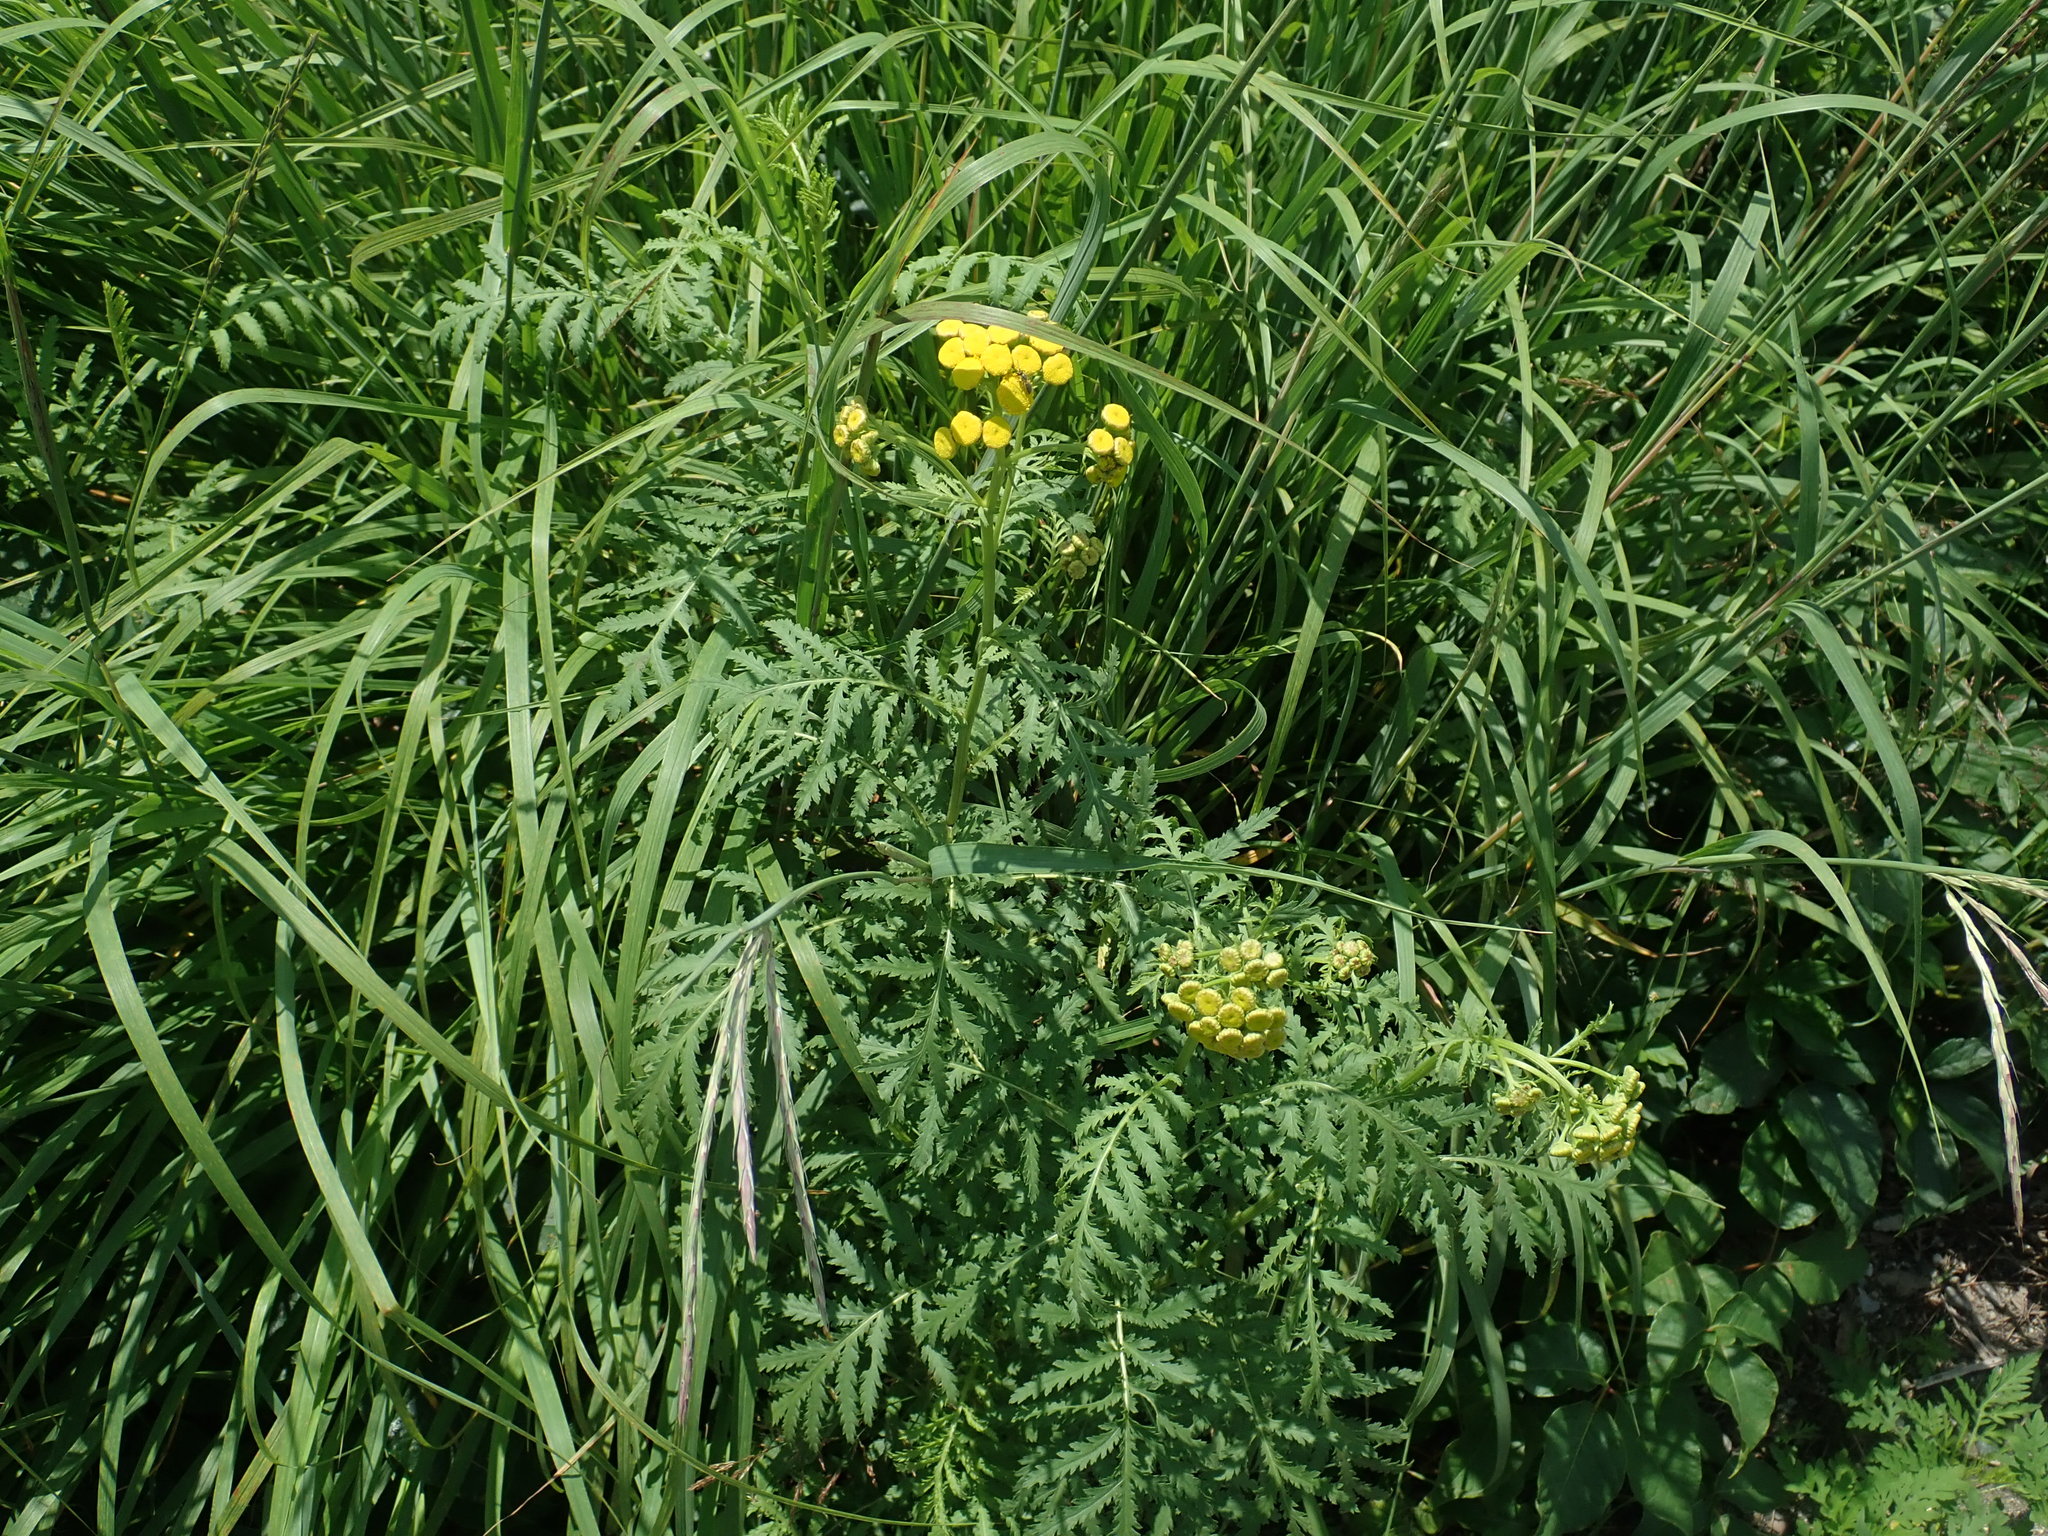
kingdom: Plantae
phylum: Tracheophyta
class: Magnoliopsida
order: Asterales
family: Asteraceae
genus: Tanacetum
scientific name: Tanacetum vulgare
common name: Common tansy
